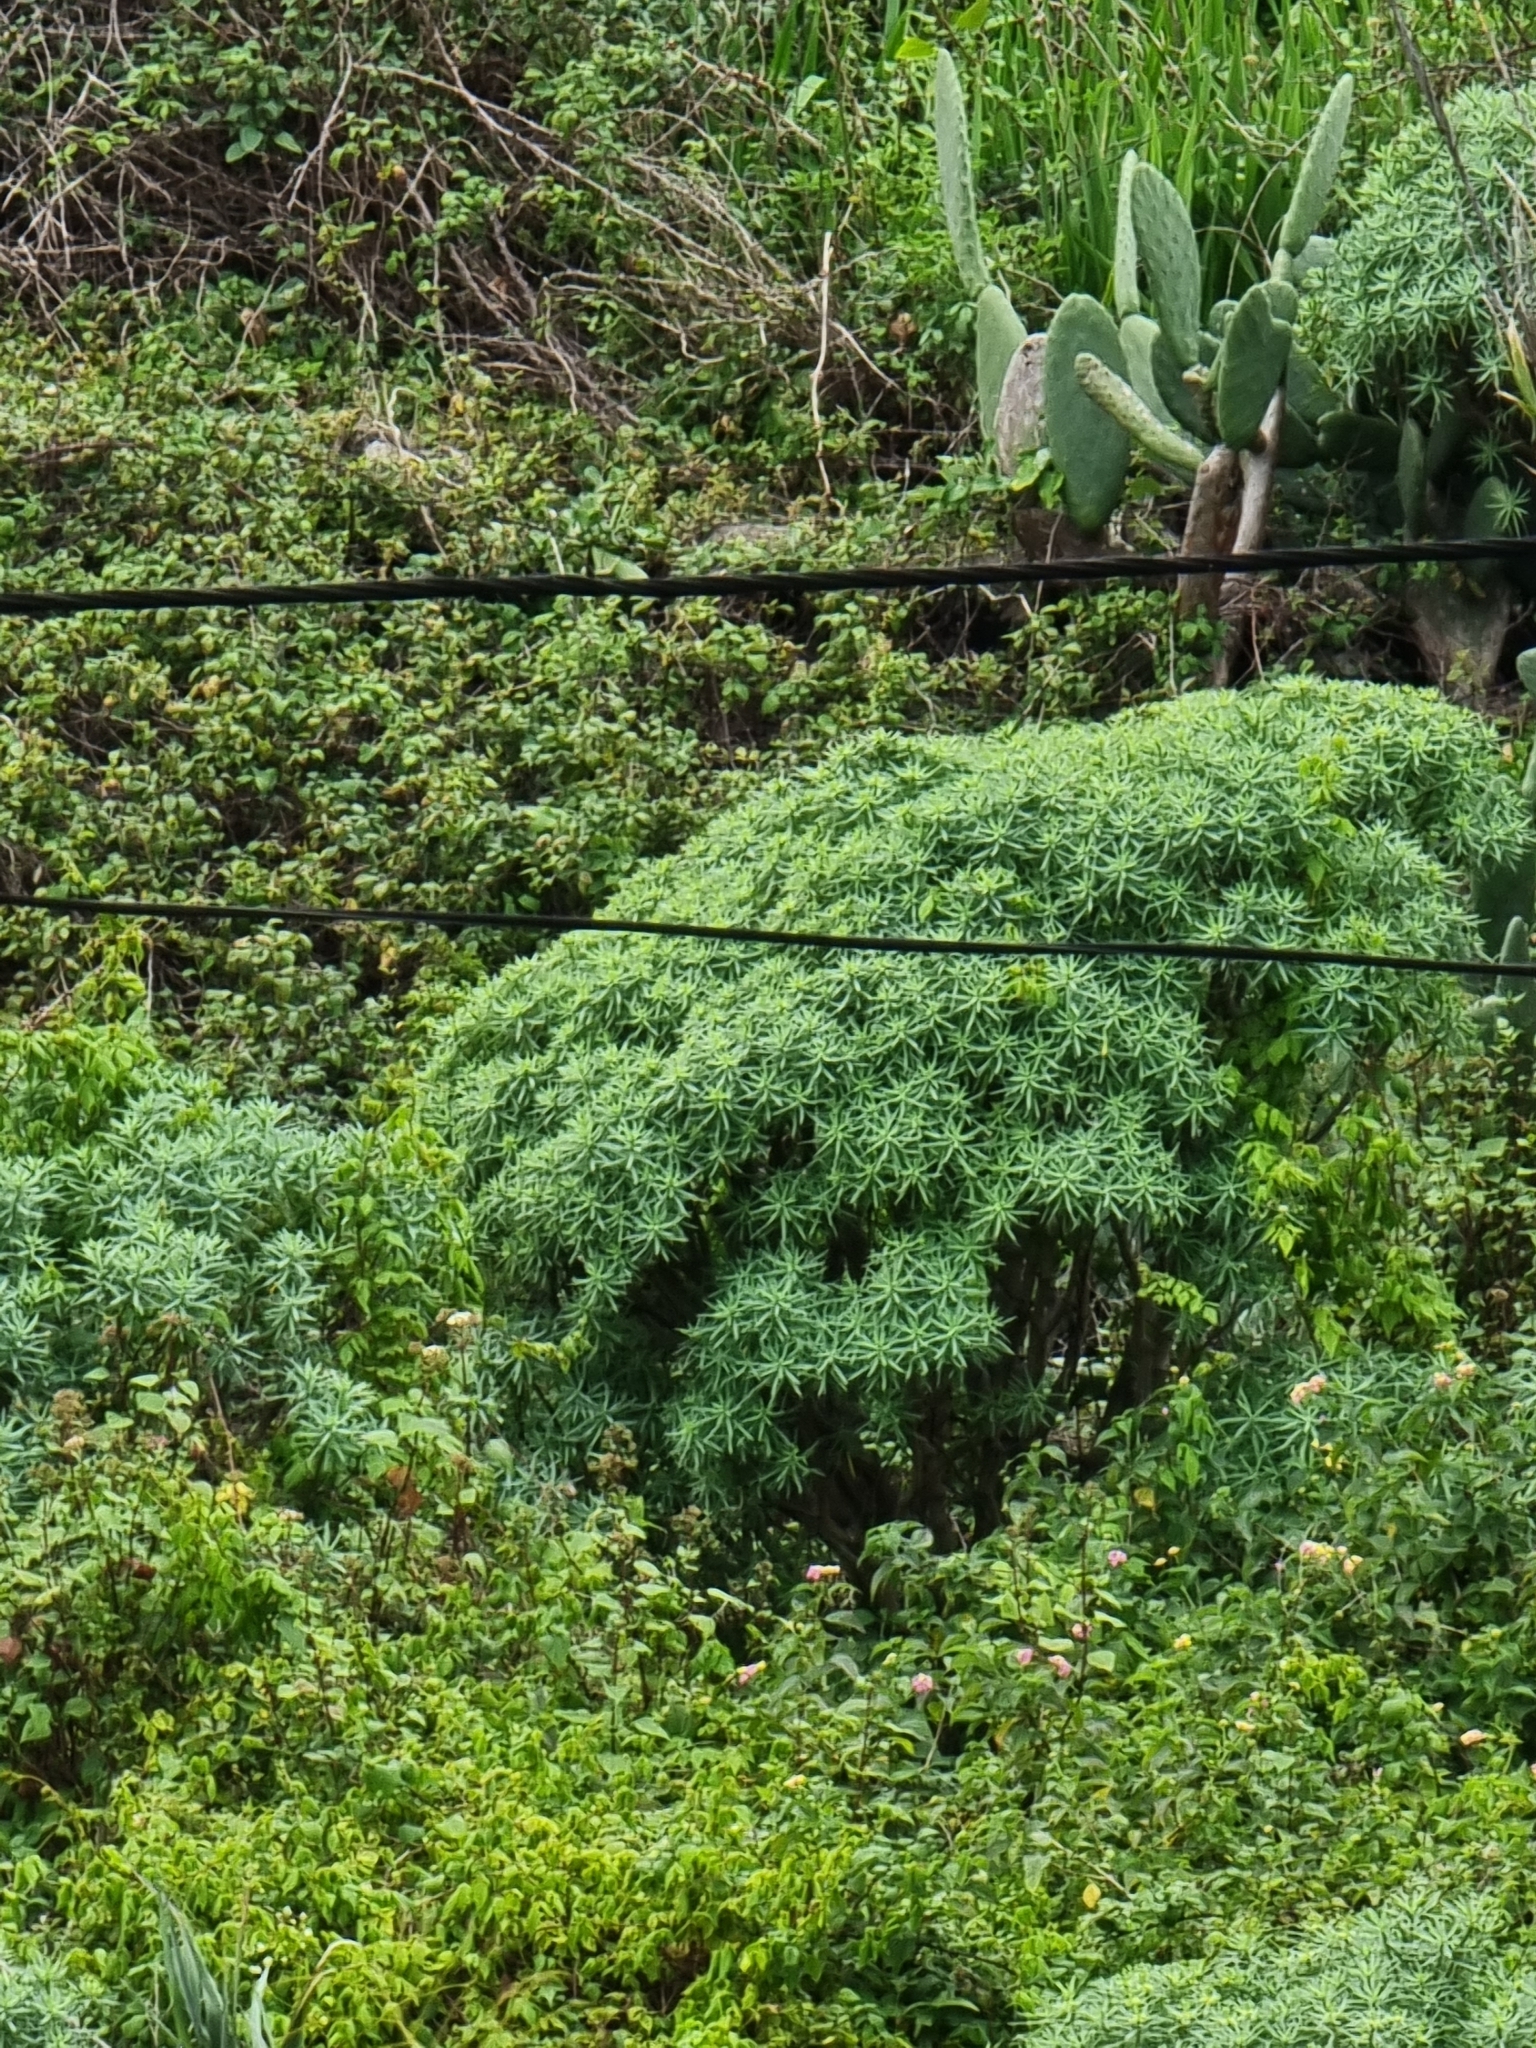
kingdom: Plantae
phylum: Tracheophyta
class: Magnoliopsida
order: Malpighiales
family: Euphorbiaceae
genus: Euphorbia
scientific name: Euphorbia piscatoria
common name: Fish-stunning spurge
